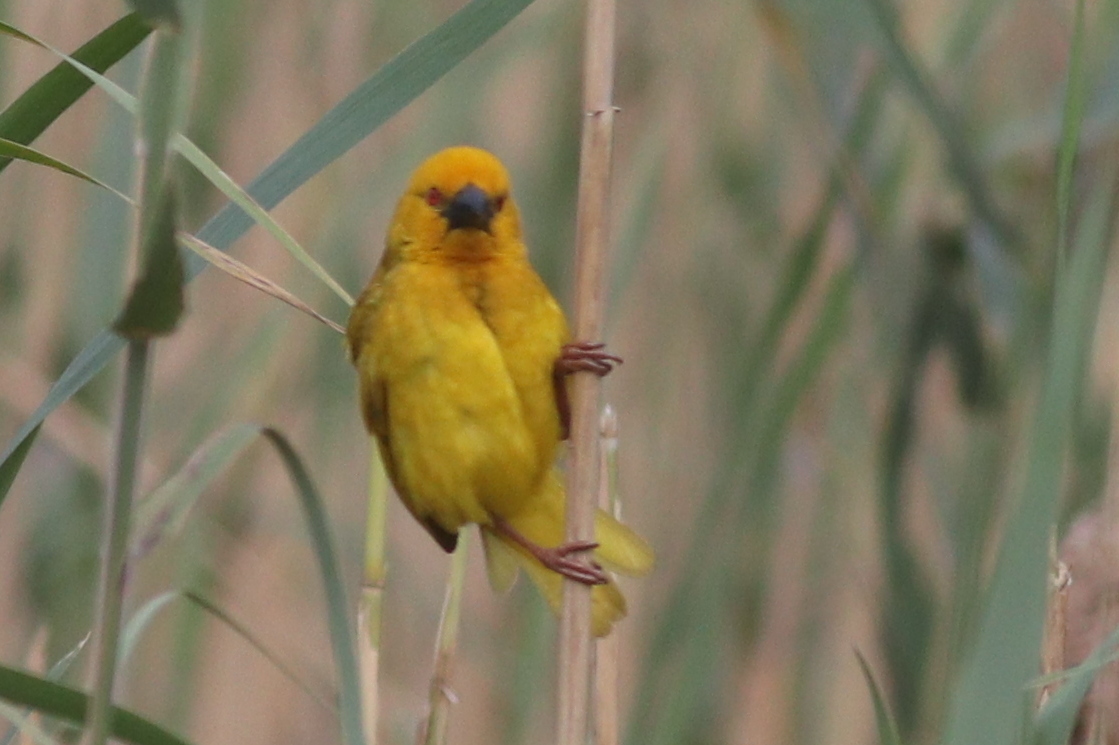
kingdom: Animalia
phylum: Chordata
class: Aves
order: Passeriformes
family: Ploceidae
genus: Ploceus
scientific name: Ploceus subaureus
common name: Yellow weaver
